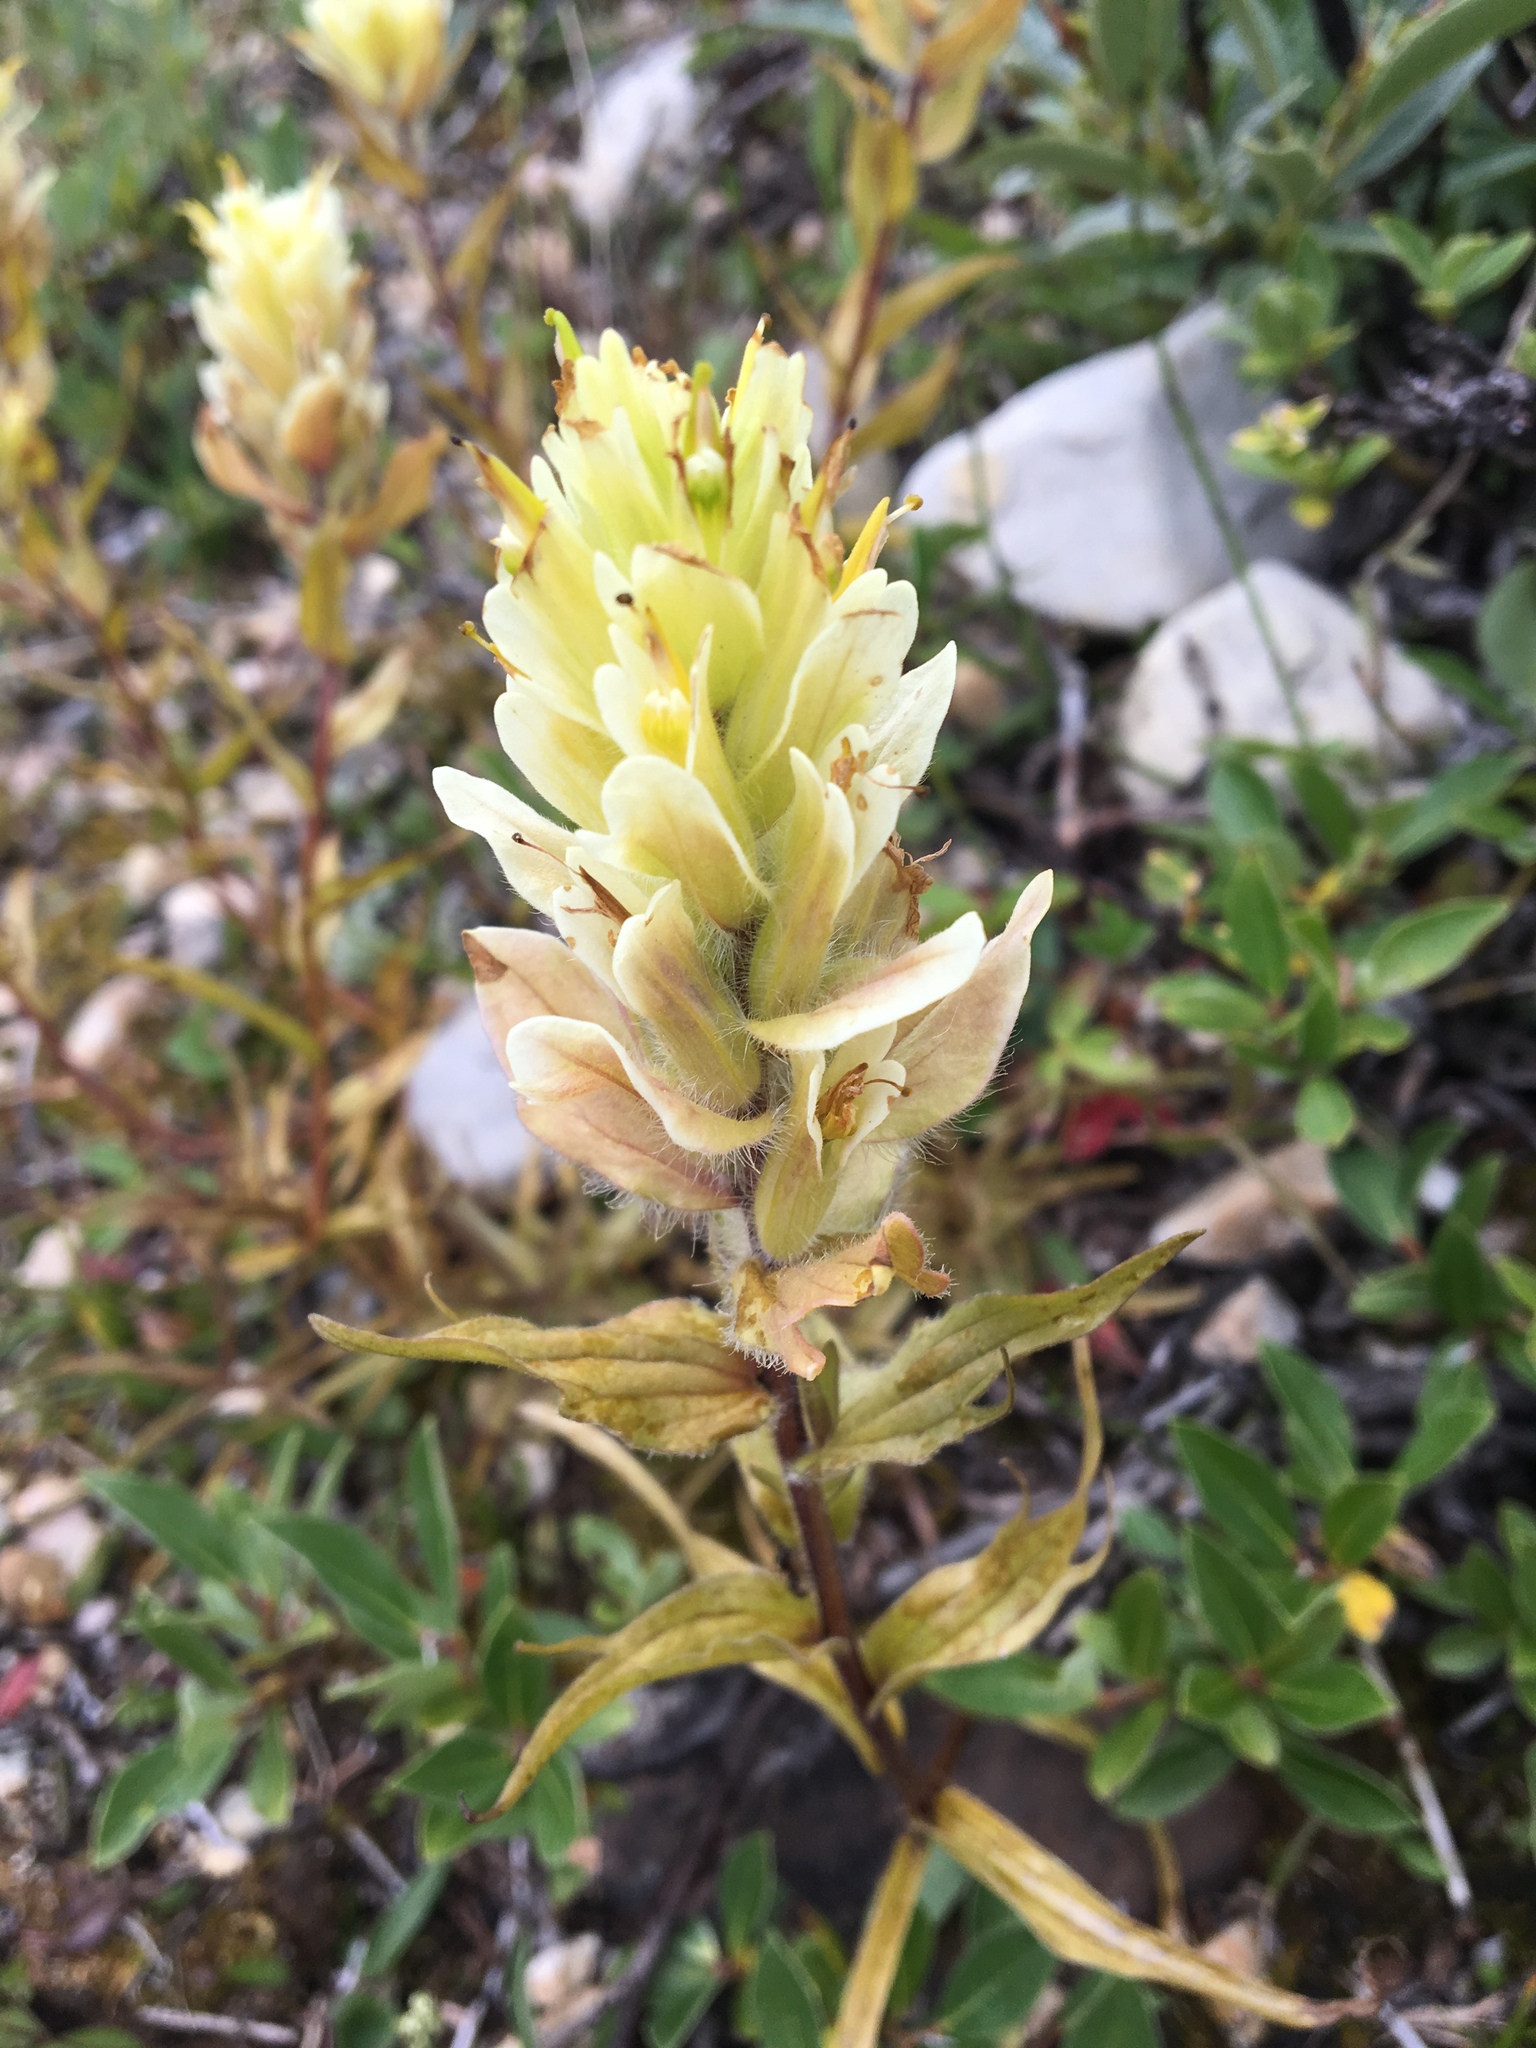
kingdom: Plantae
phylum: Tracheophyta
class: Magnoliopsida
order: Lamiales
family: Orobanchaceae
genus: Castilleja
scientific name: Castilleja occidentalis
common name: Western paintbrush
